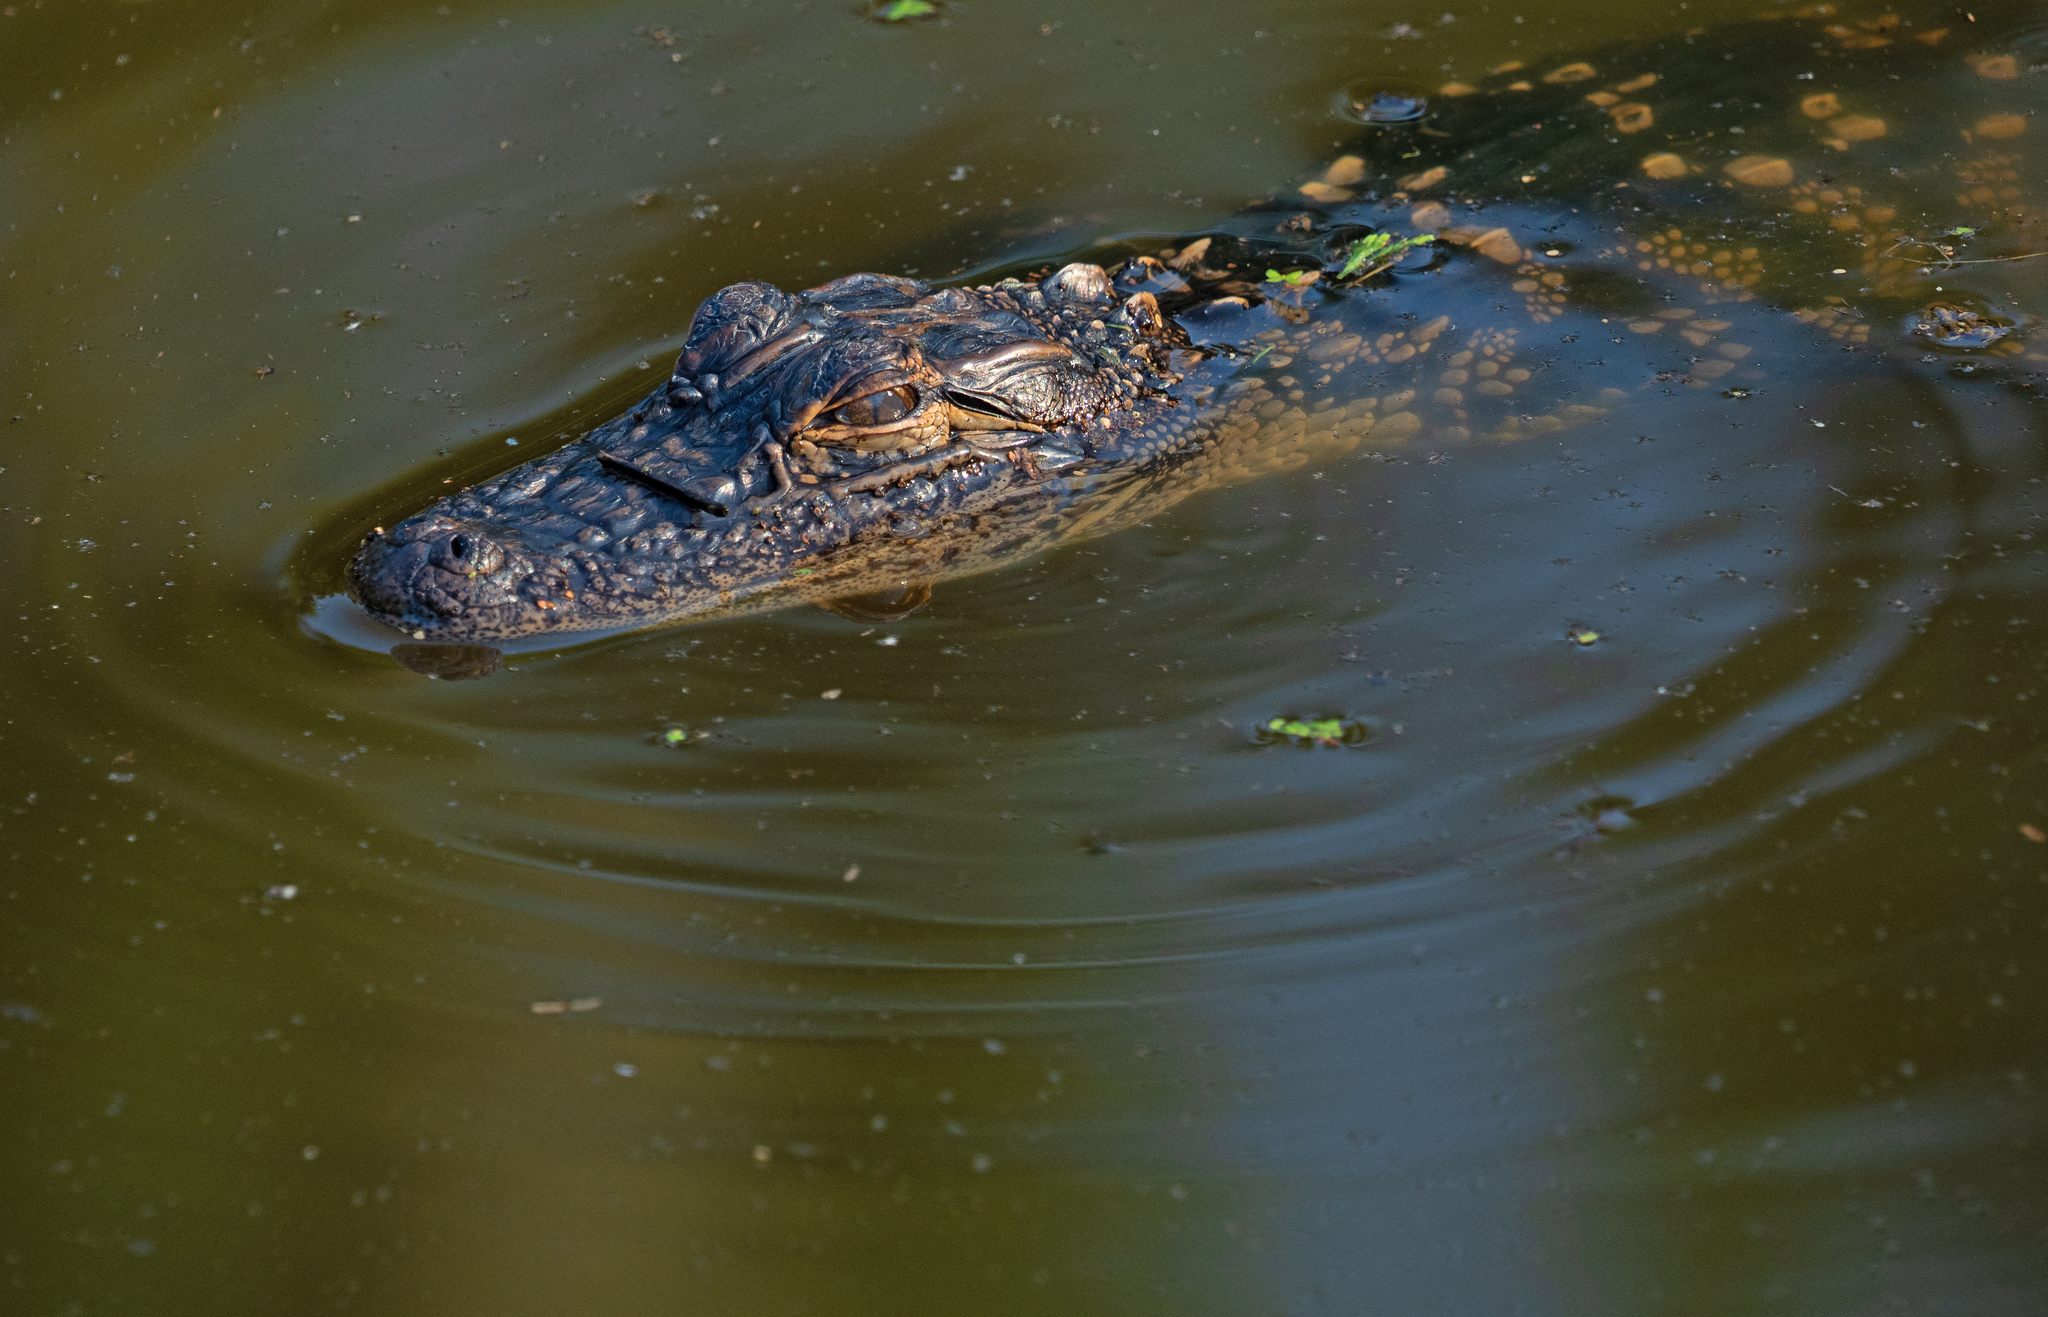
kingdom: Animalia
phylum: Chordata
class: Crocodylia
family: Alligatoridae
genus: Alligator
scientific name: Alligator mississippiensis
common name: American alligator
